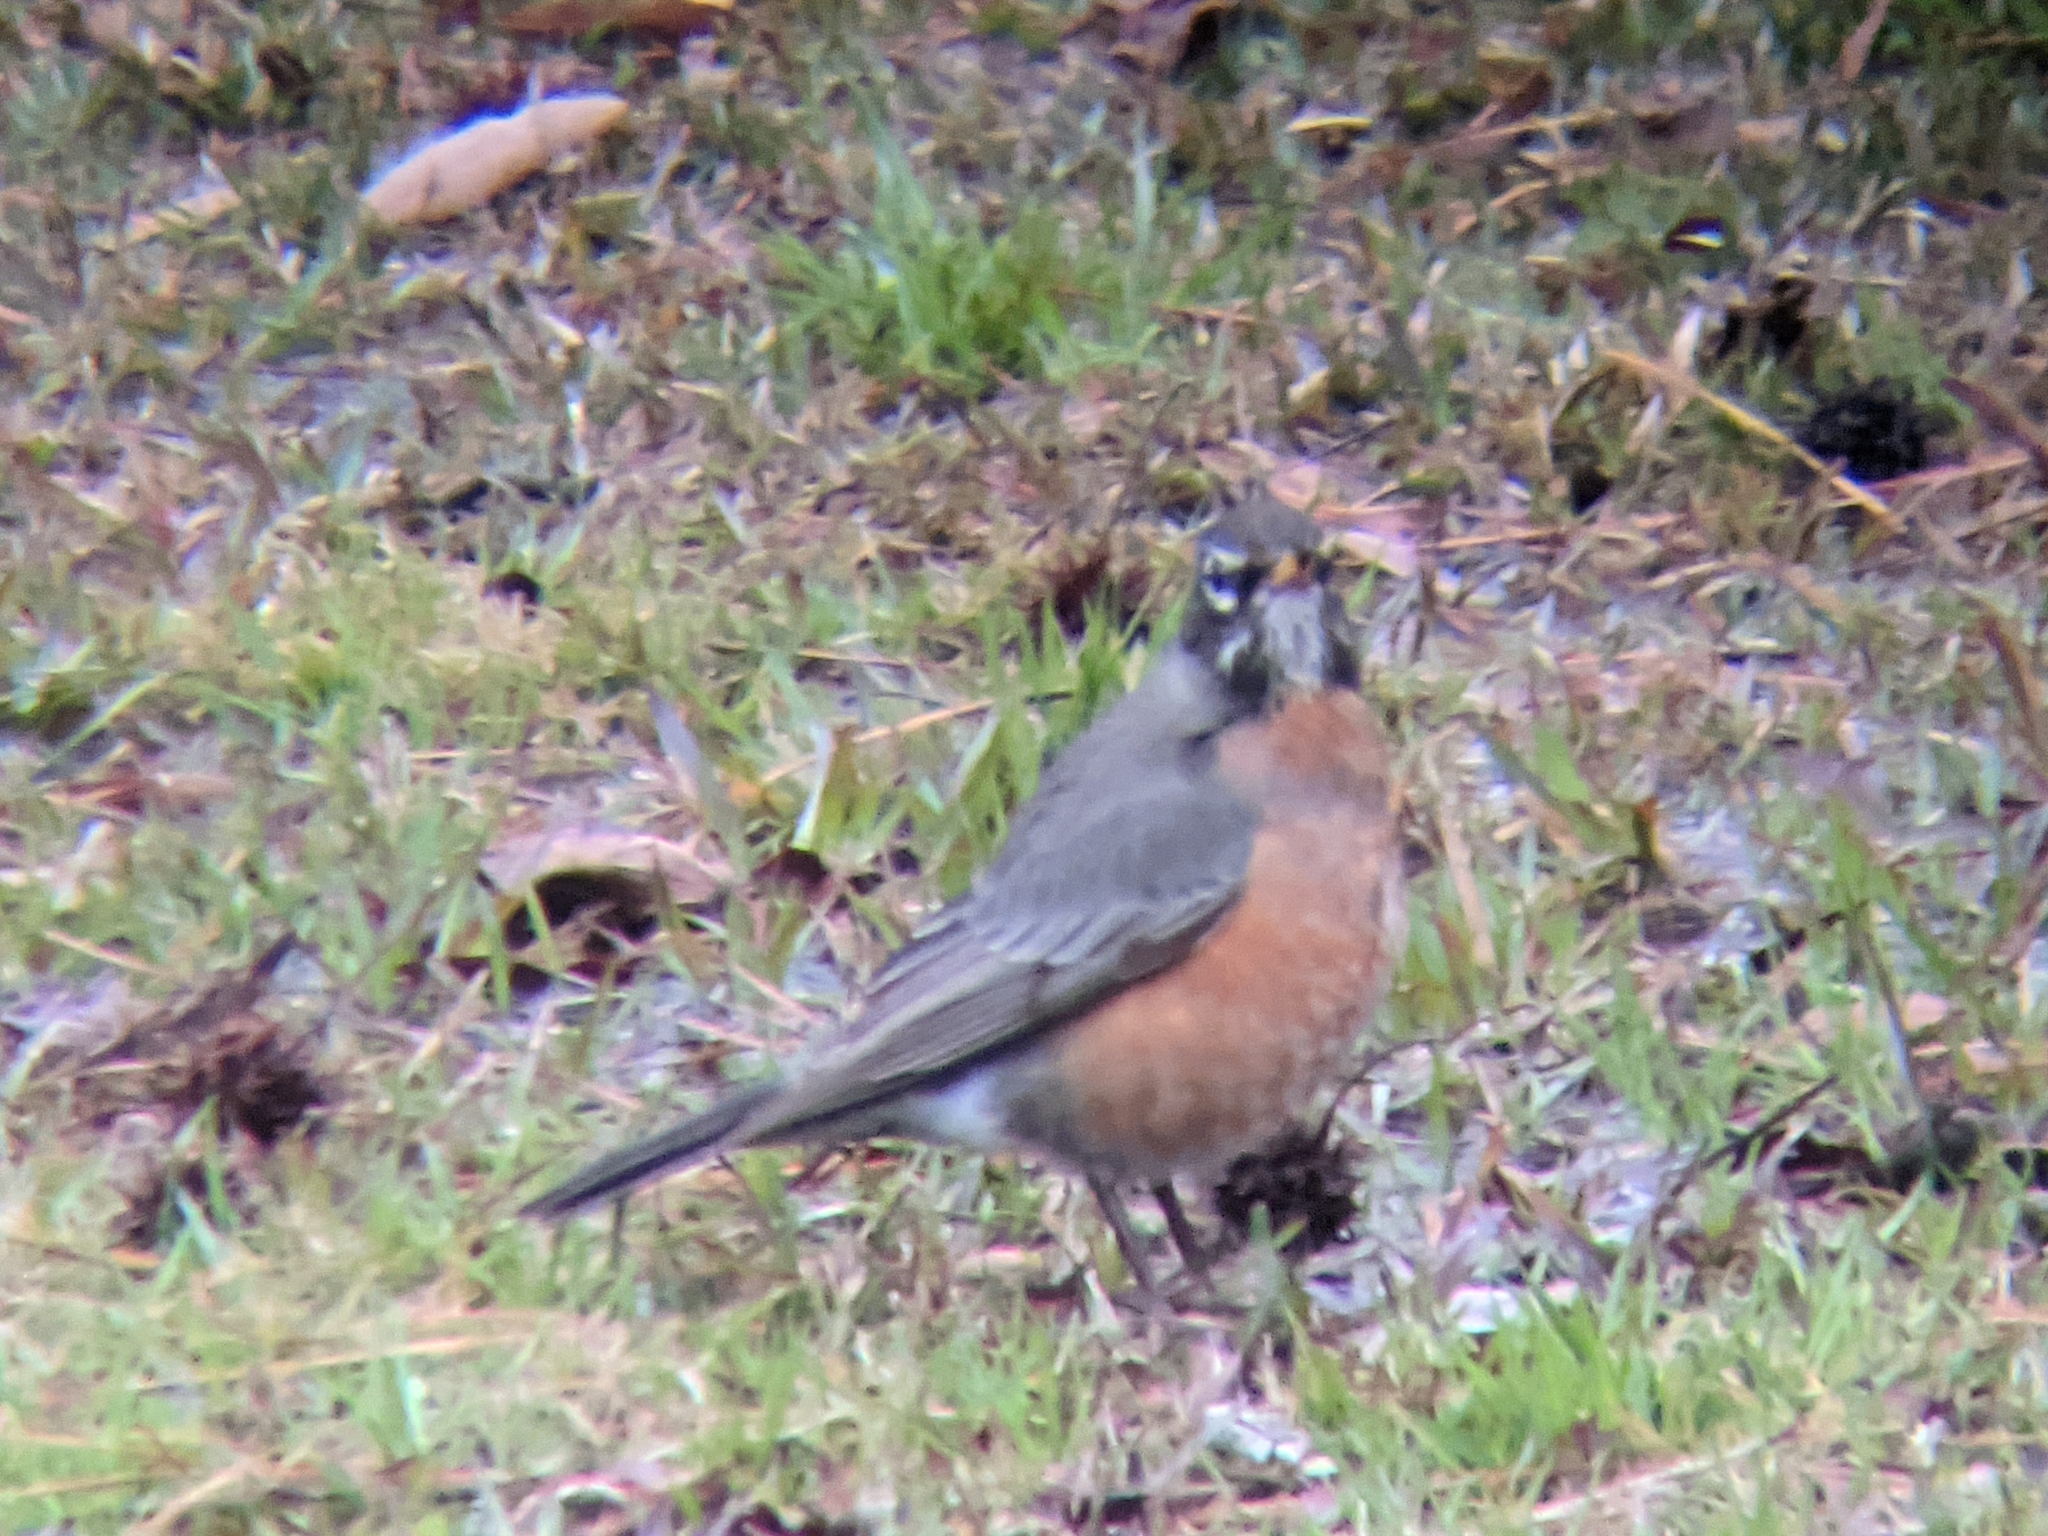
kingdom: Animalia
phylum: Chordata
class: Aves
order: Passeriformes
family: Turdidae
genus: Turdus
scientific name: Turdus migratorius
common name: American robin
